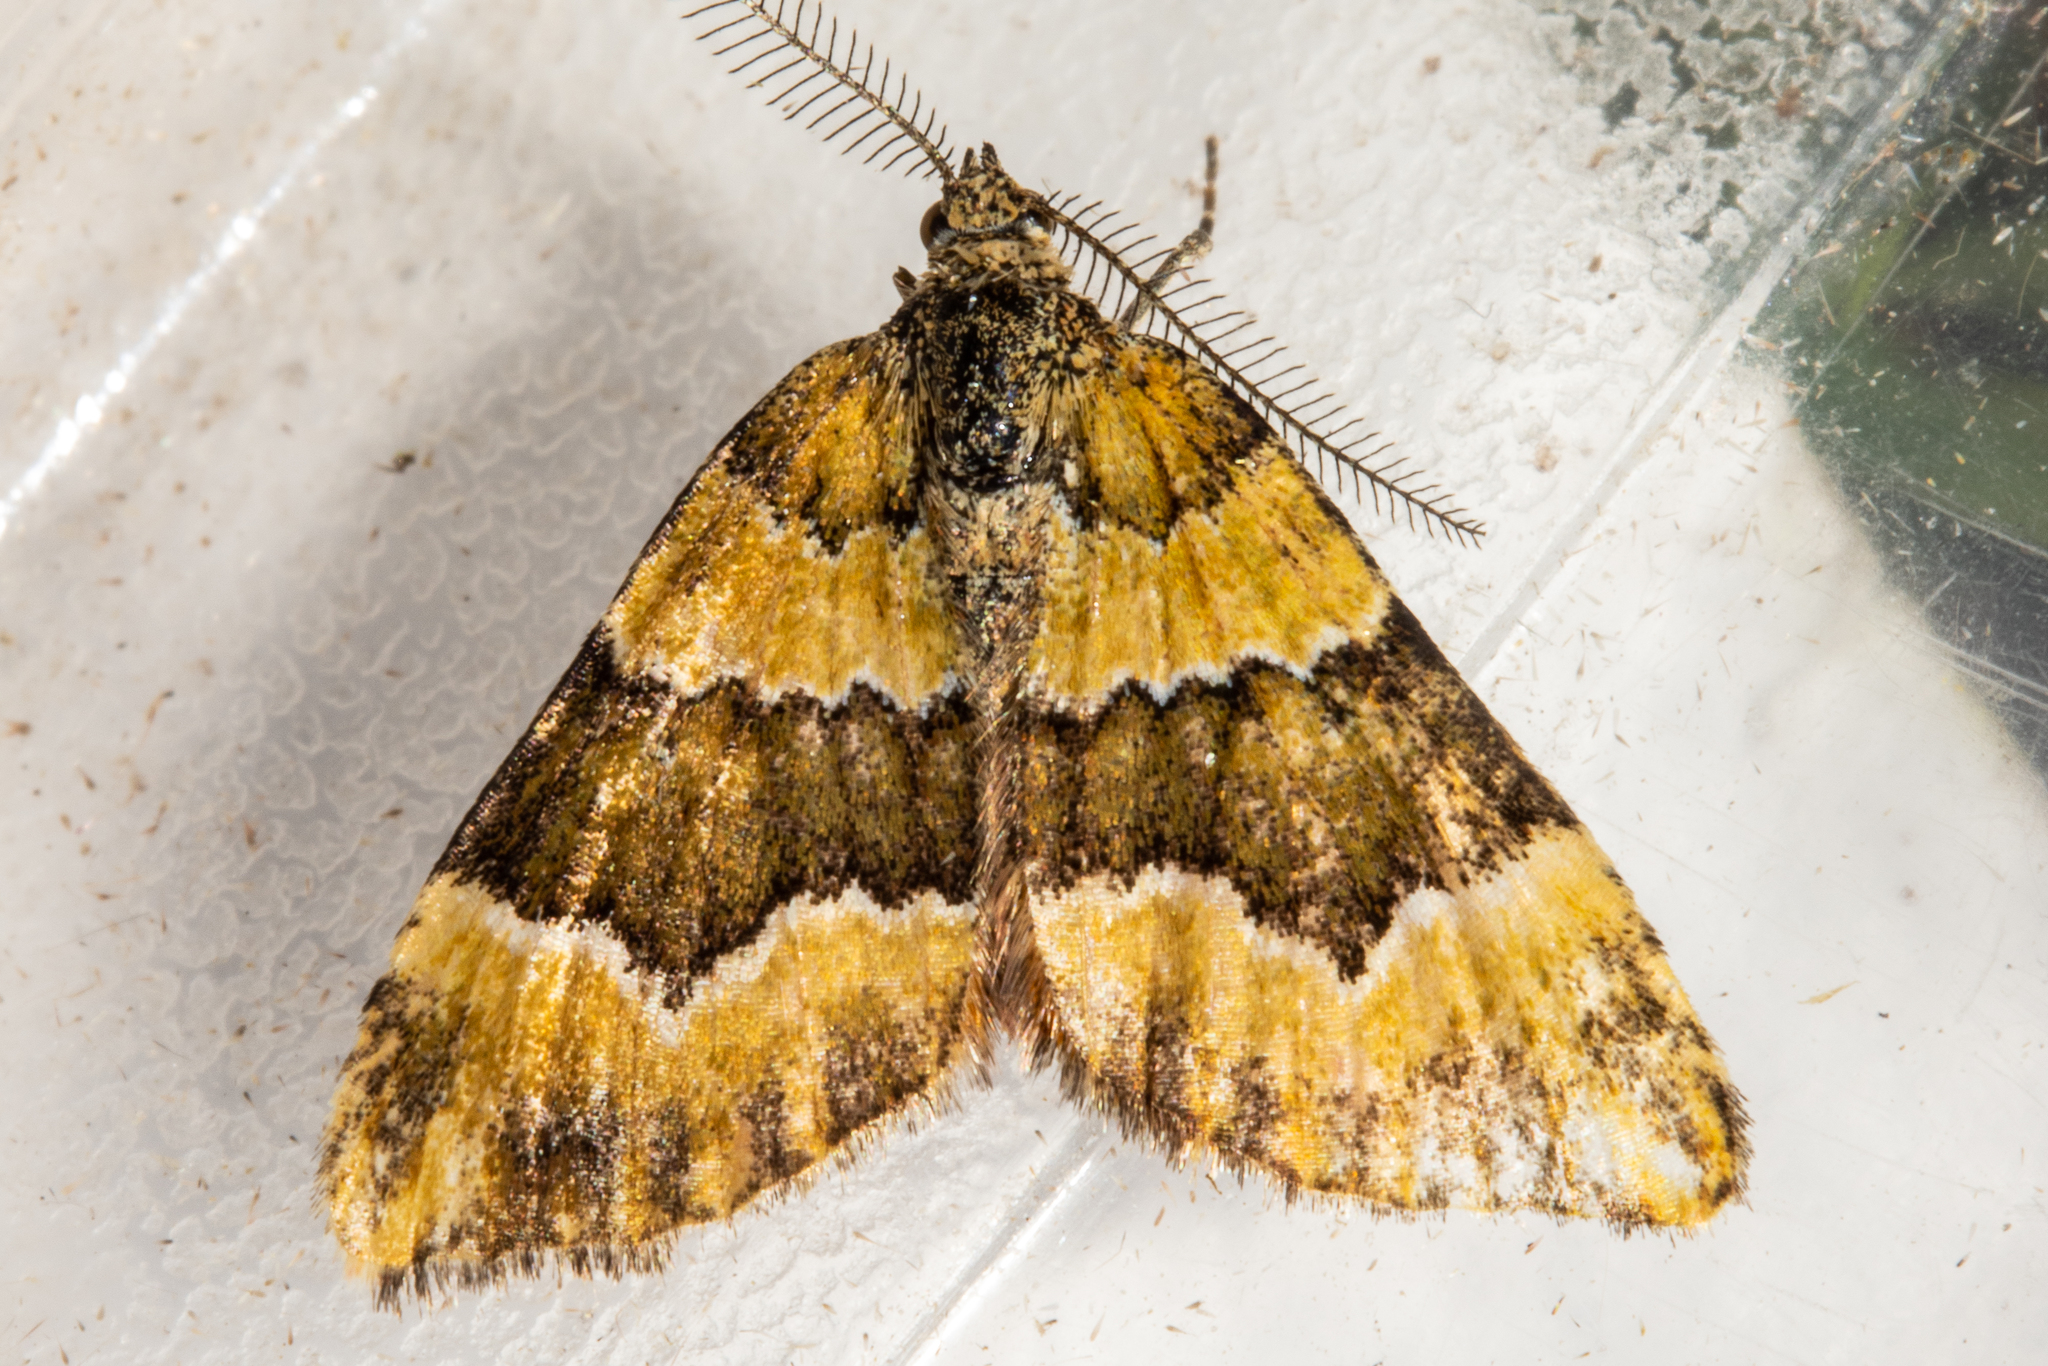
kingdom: Animalia
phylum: Arthropoda
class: Insecta
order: Lepidoptera
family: Geometridae
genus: Asaphodes
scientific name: Asaphodes cinnabari
